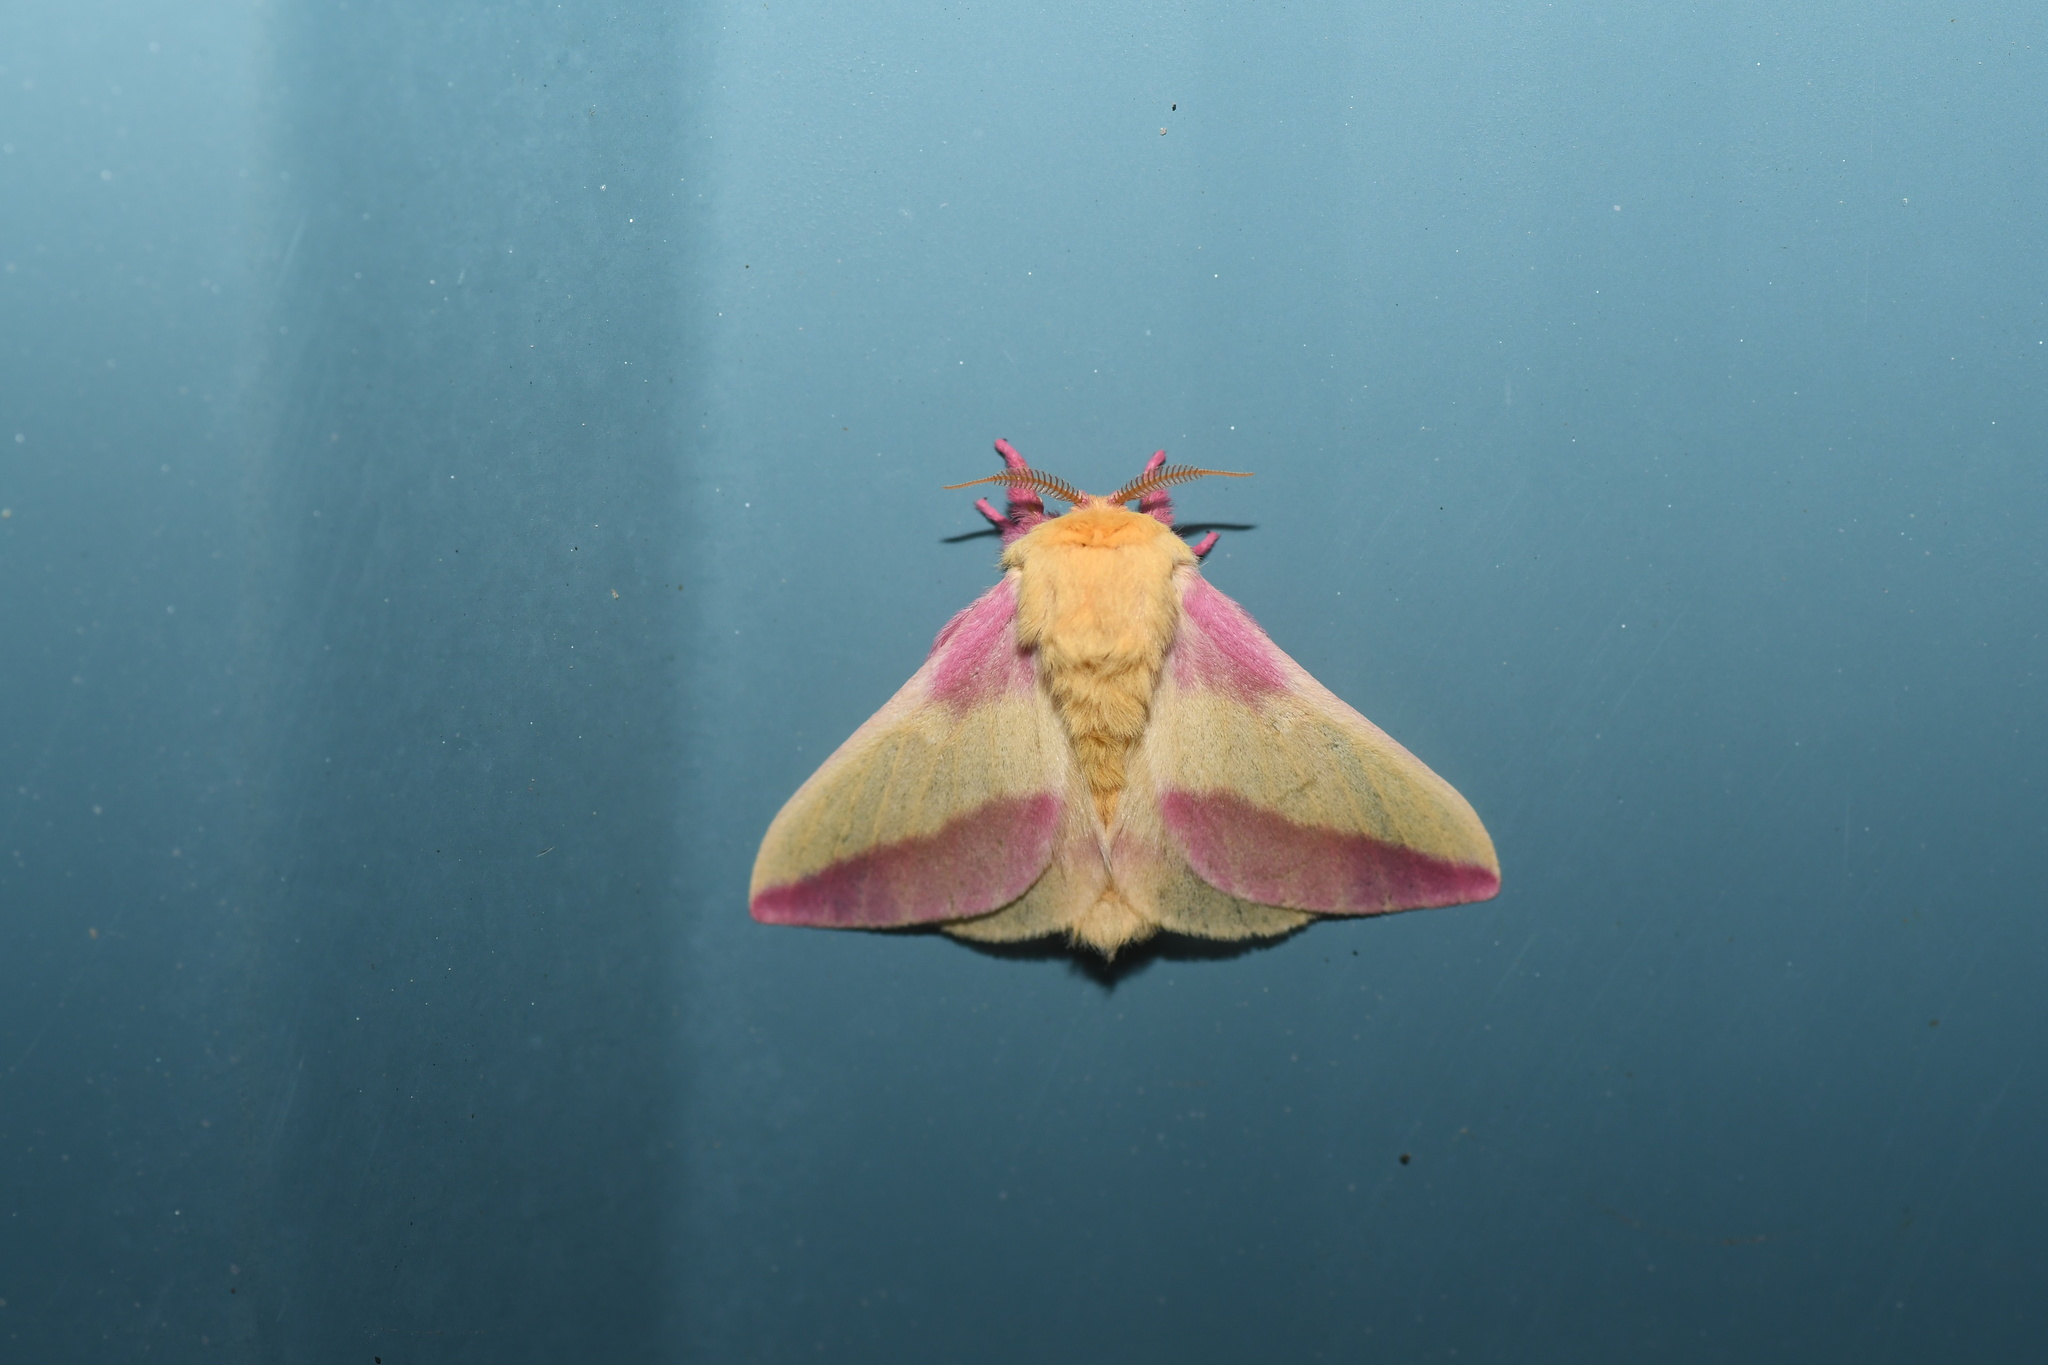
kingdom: Animalia
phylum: Arthropoda
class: Insecta
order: Lepidoptera
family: Saturniidae
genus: Dryocampa
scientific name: Dryocampa rubicunda
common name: Rosy maple moth
